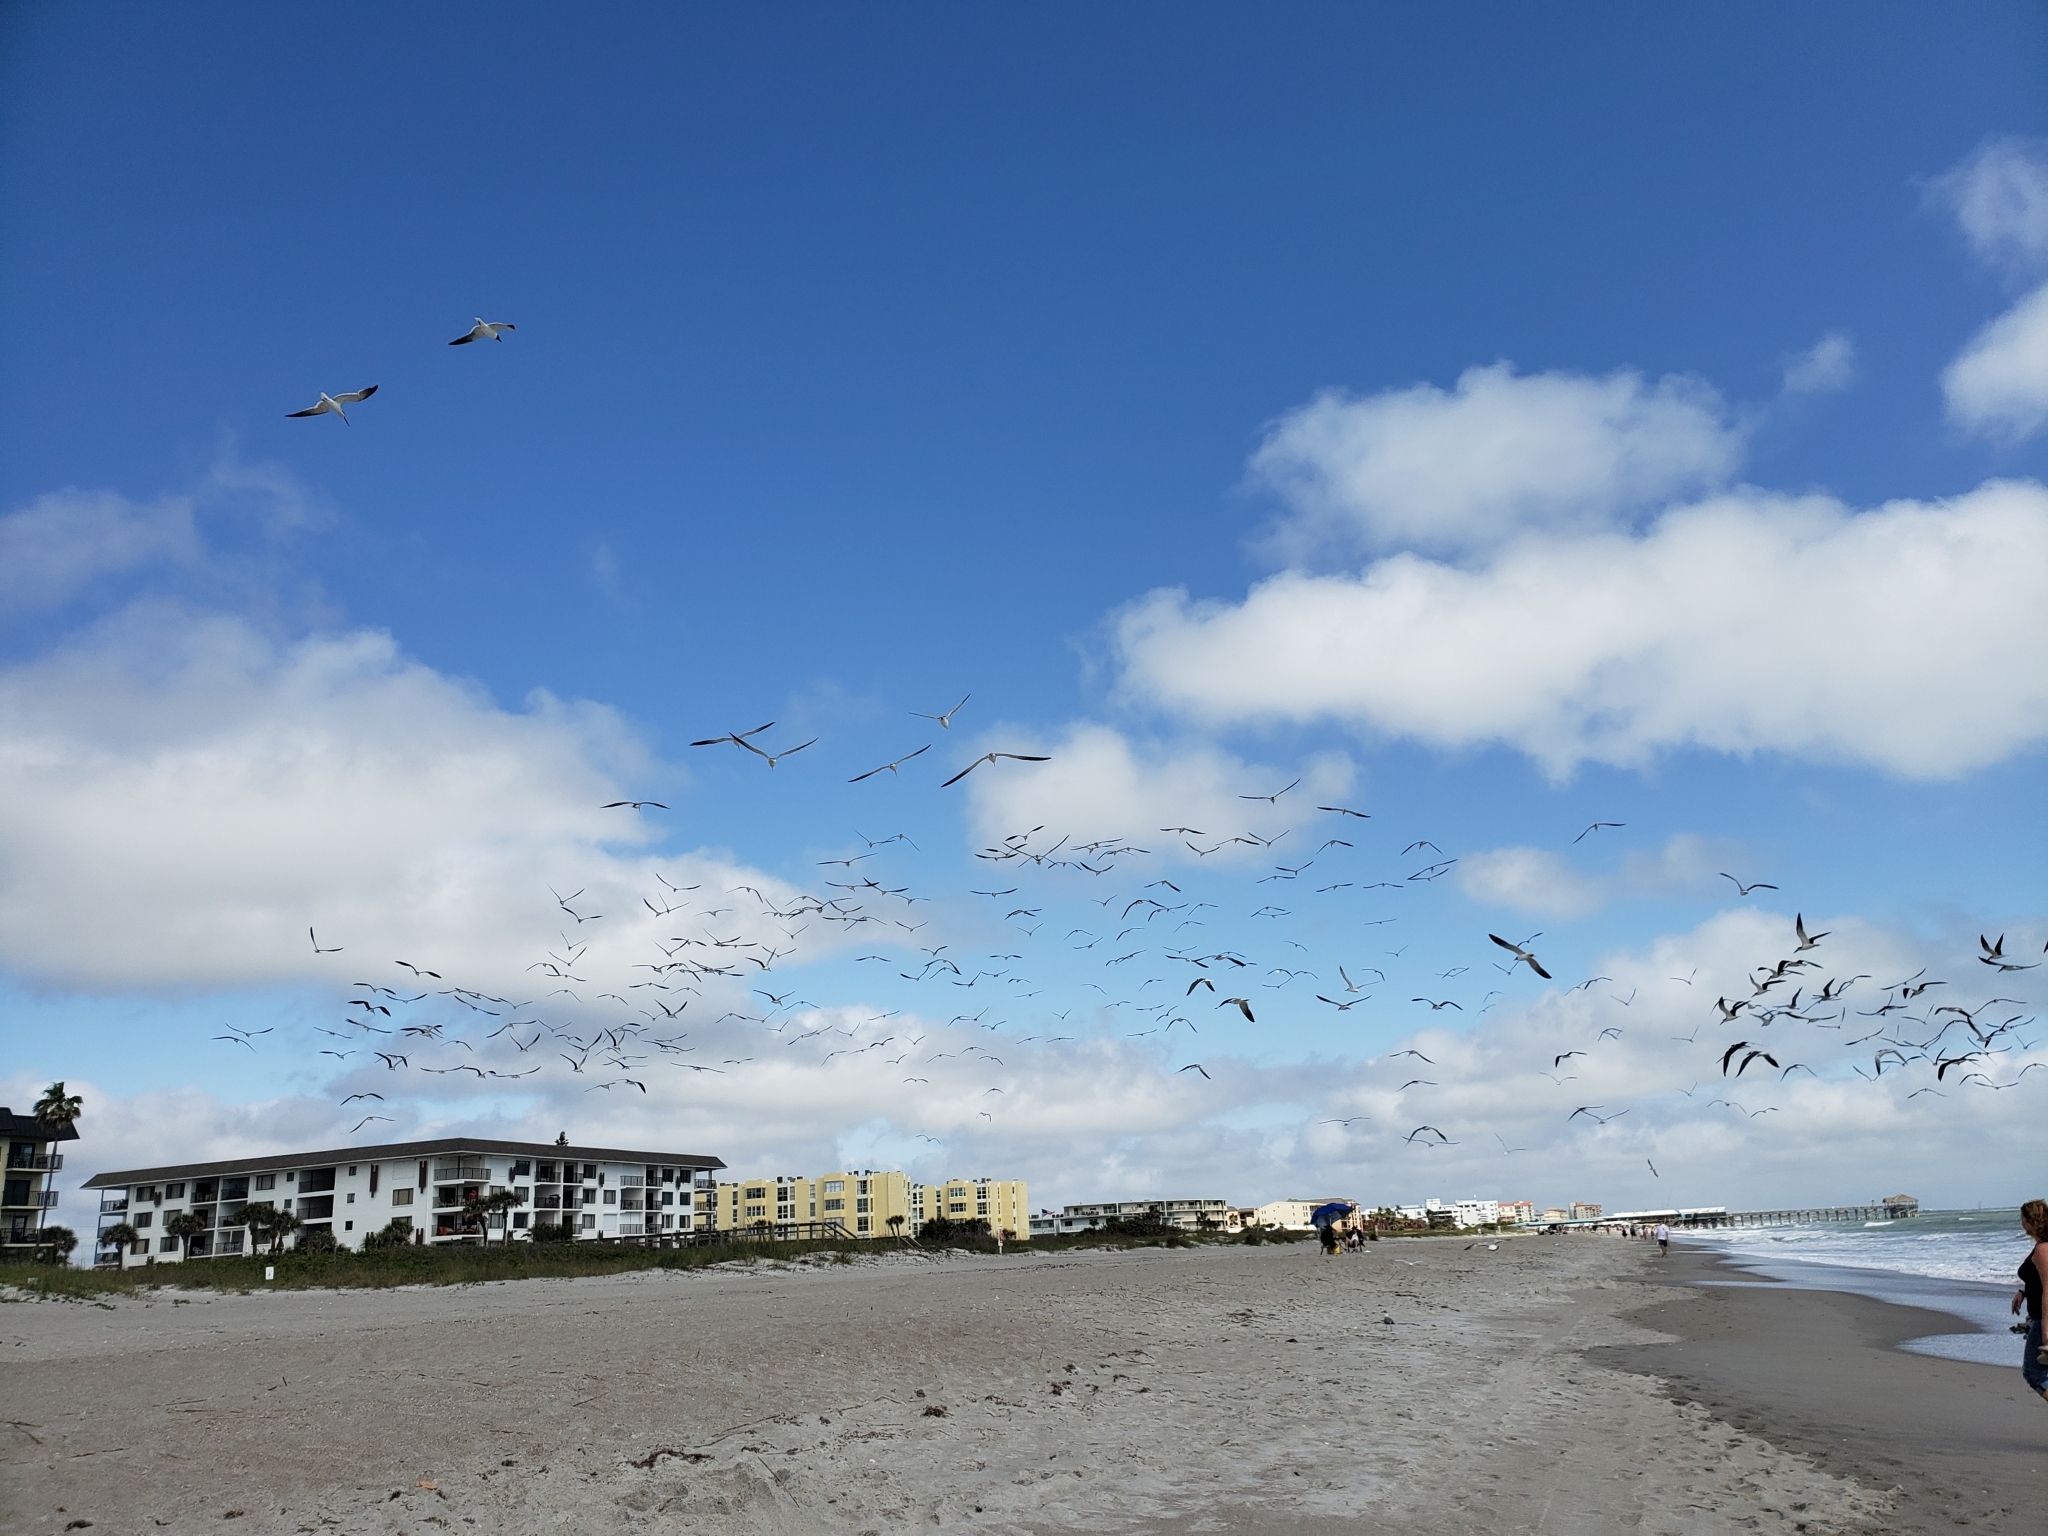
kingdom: Animalia
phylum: Chordata
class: Aves
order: Charadriiformes
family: Laridae
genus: Rynchops
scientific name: Rynchops niger
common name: Black skimmer
